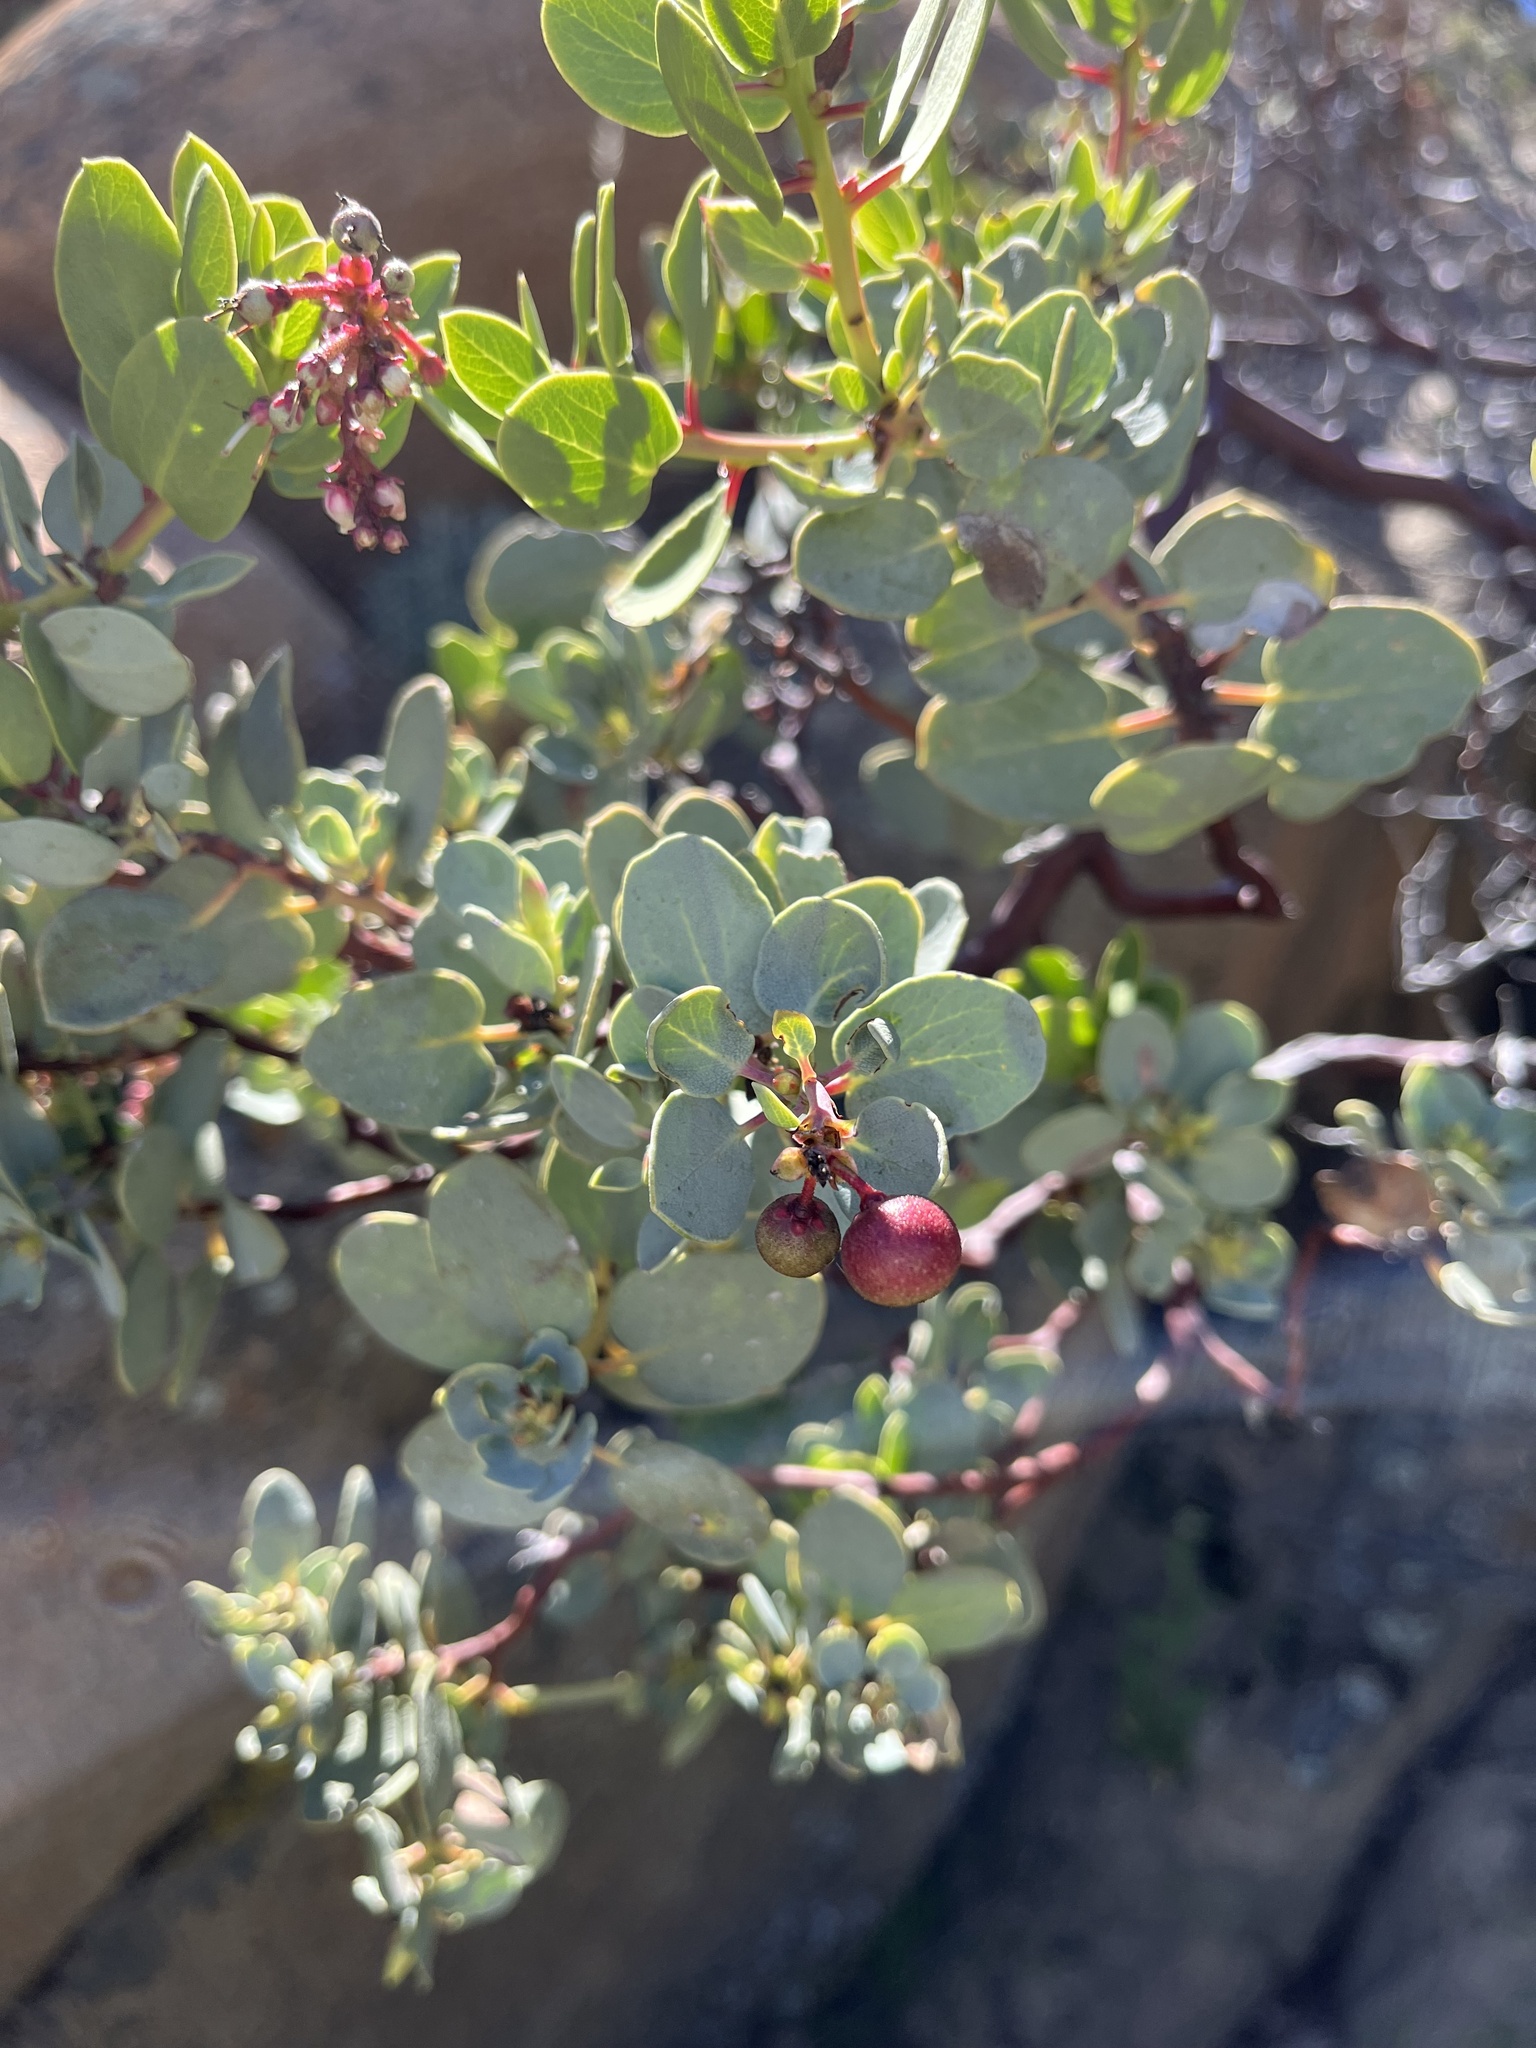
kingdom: Plantae
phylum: Tracheophyta
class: Magnoliopsida
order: Ericales
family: Ericaceae
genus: Arctostaphylos
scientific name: Arctostaphylos glauca
